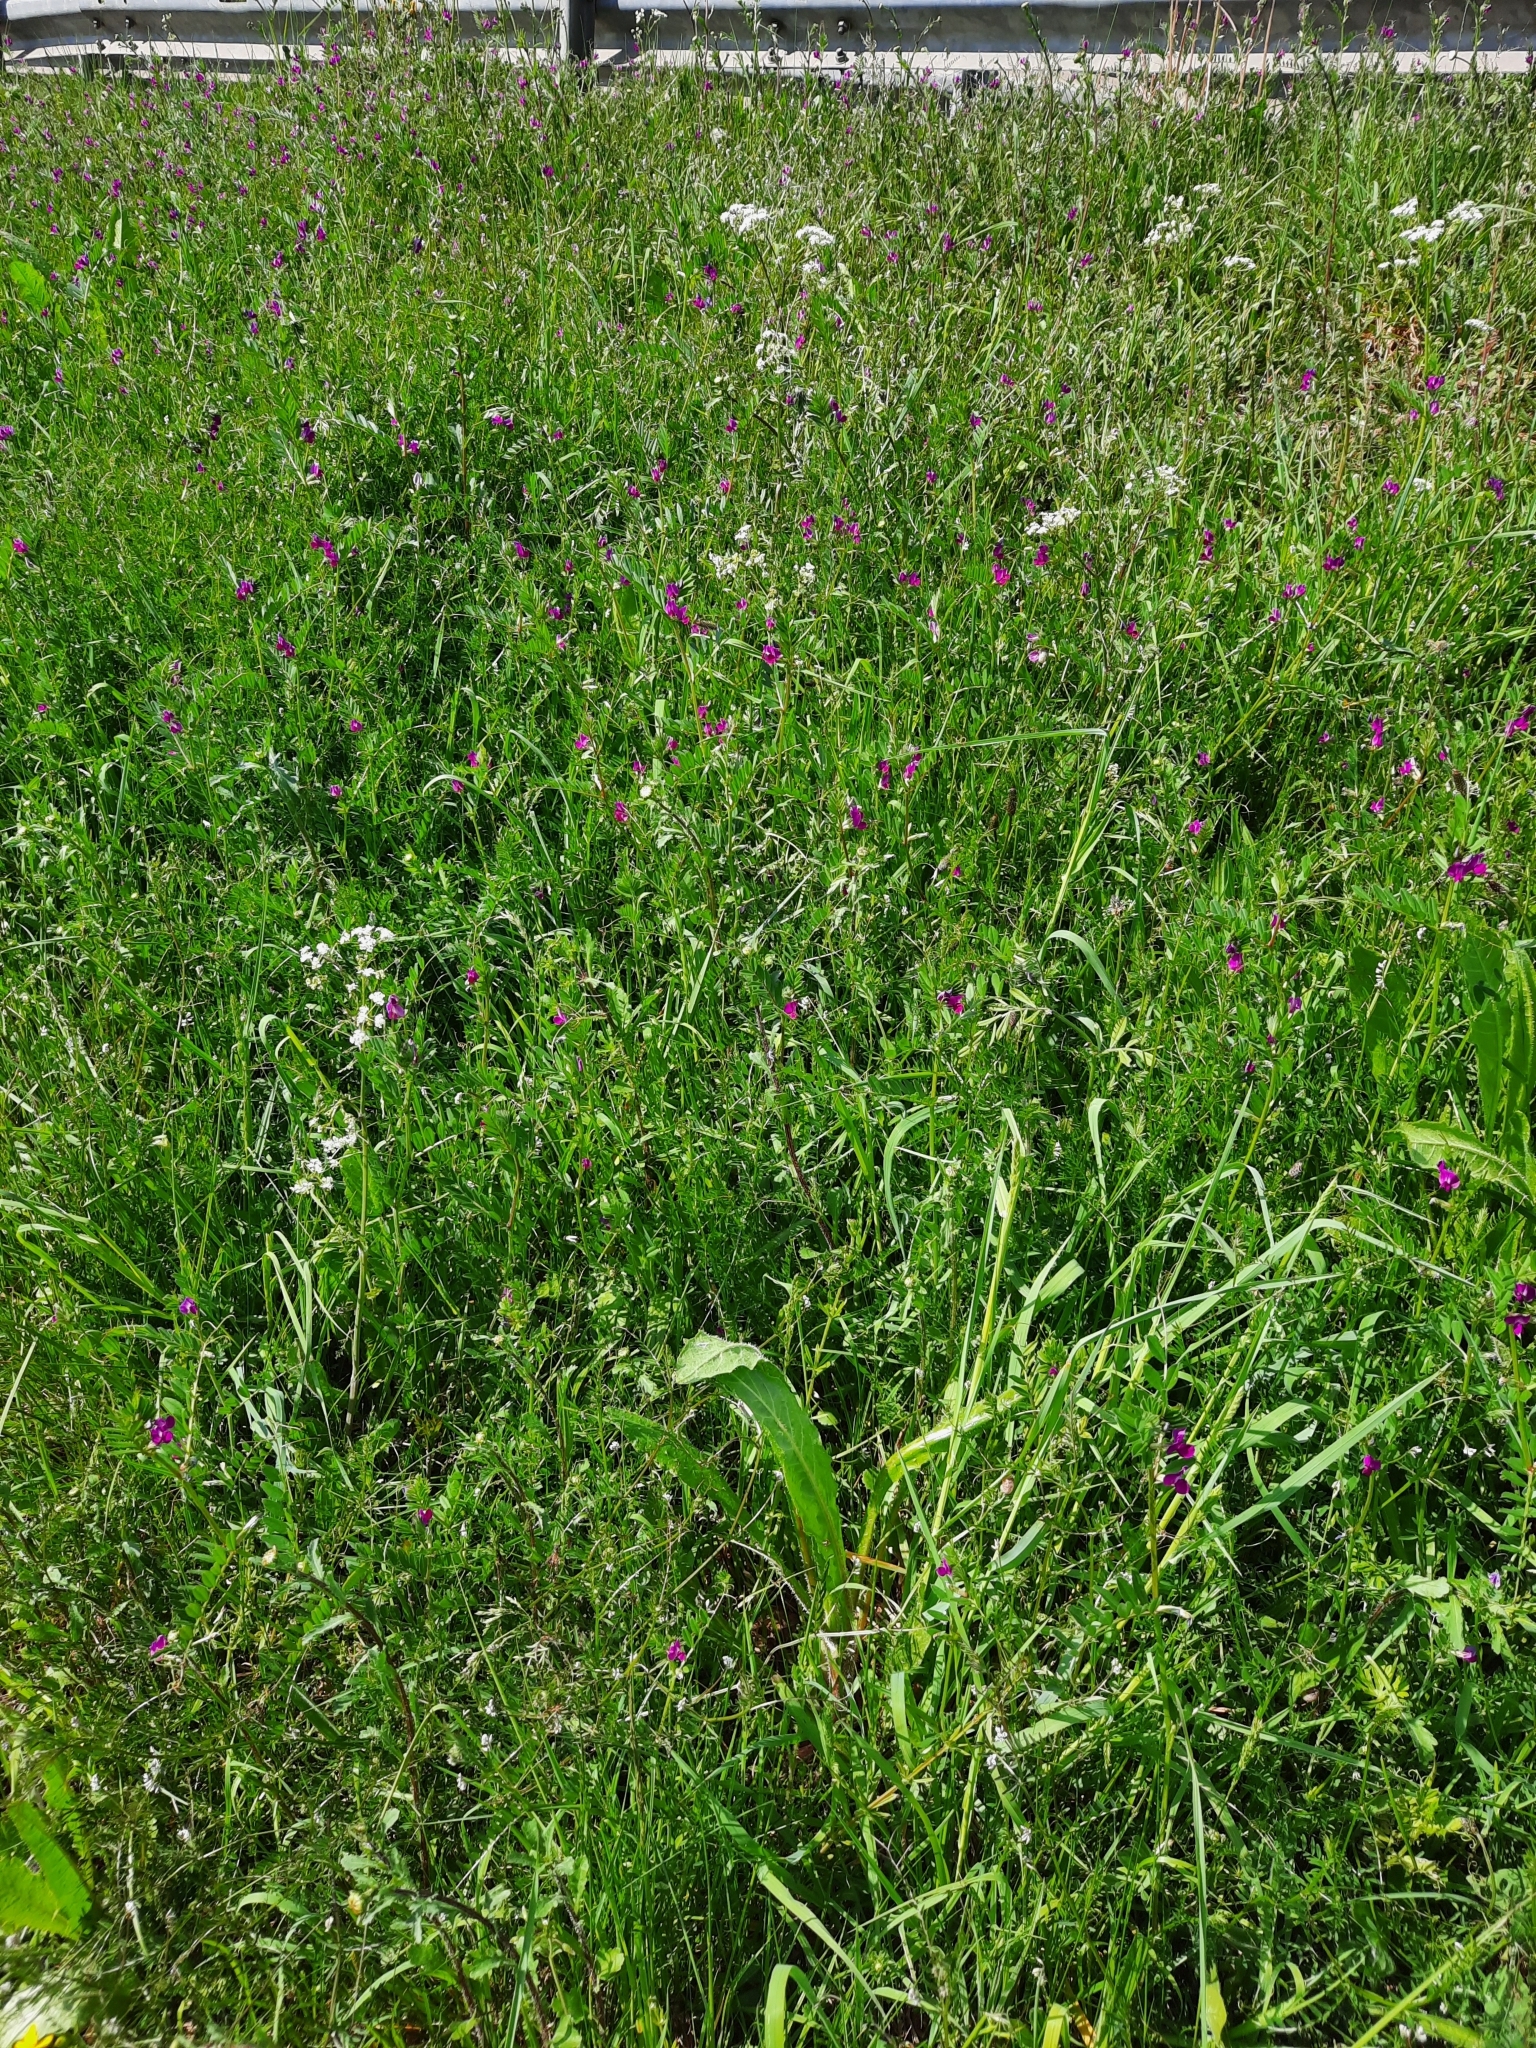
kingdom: Plantae
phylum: Tracheophyta
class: Magnoliopsida
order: Fabales
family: Fabaceae
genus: Vicia
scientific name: Vicia sativa
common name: Garden vetch
